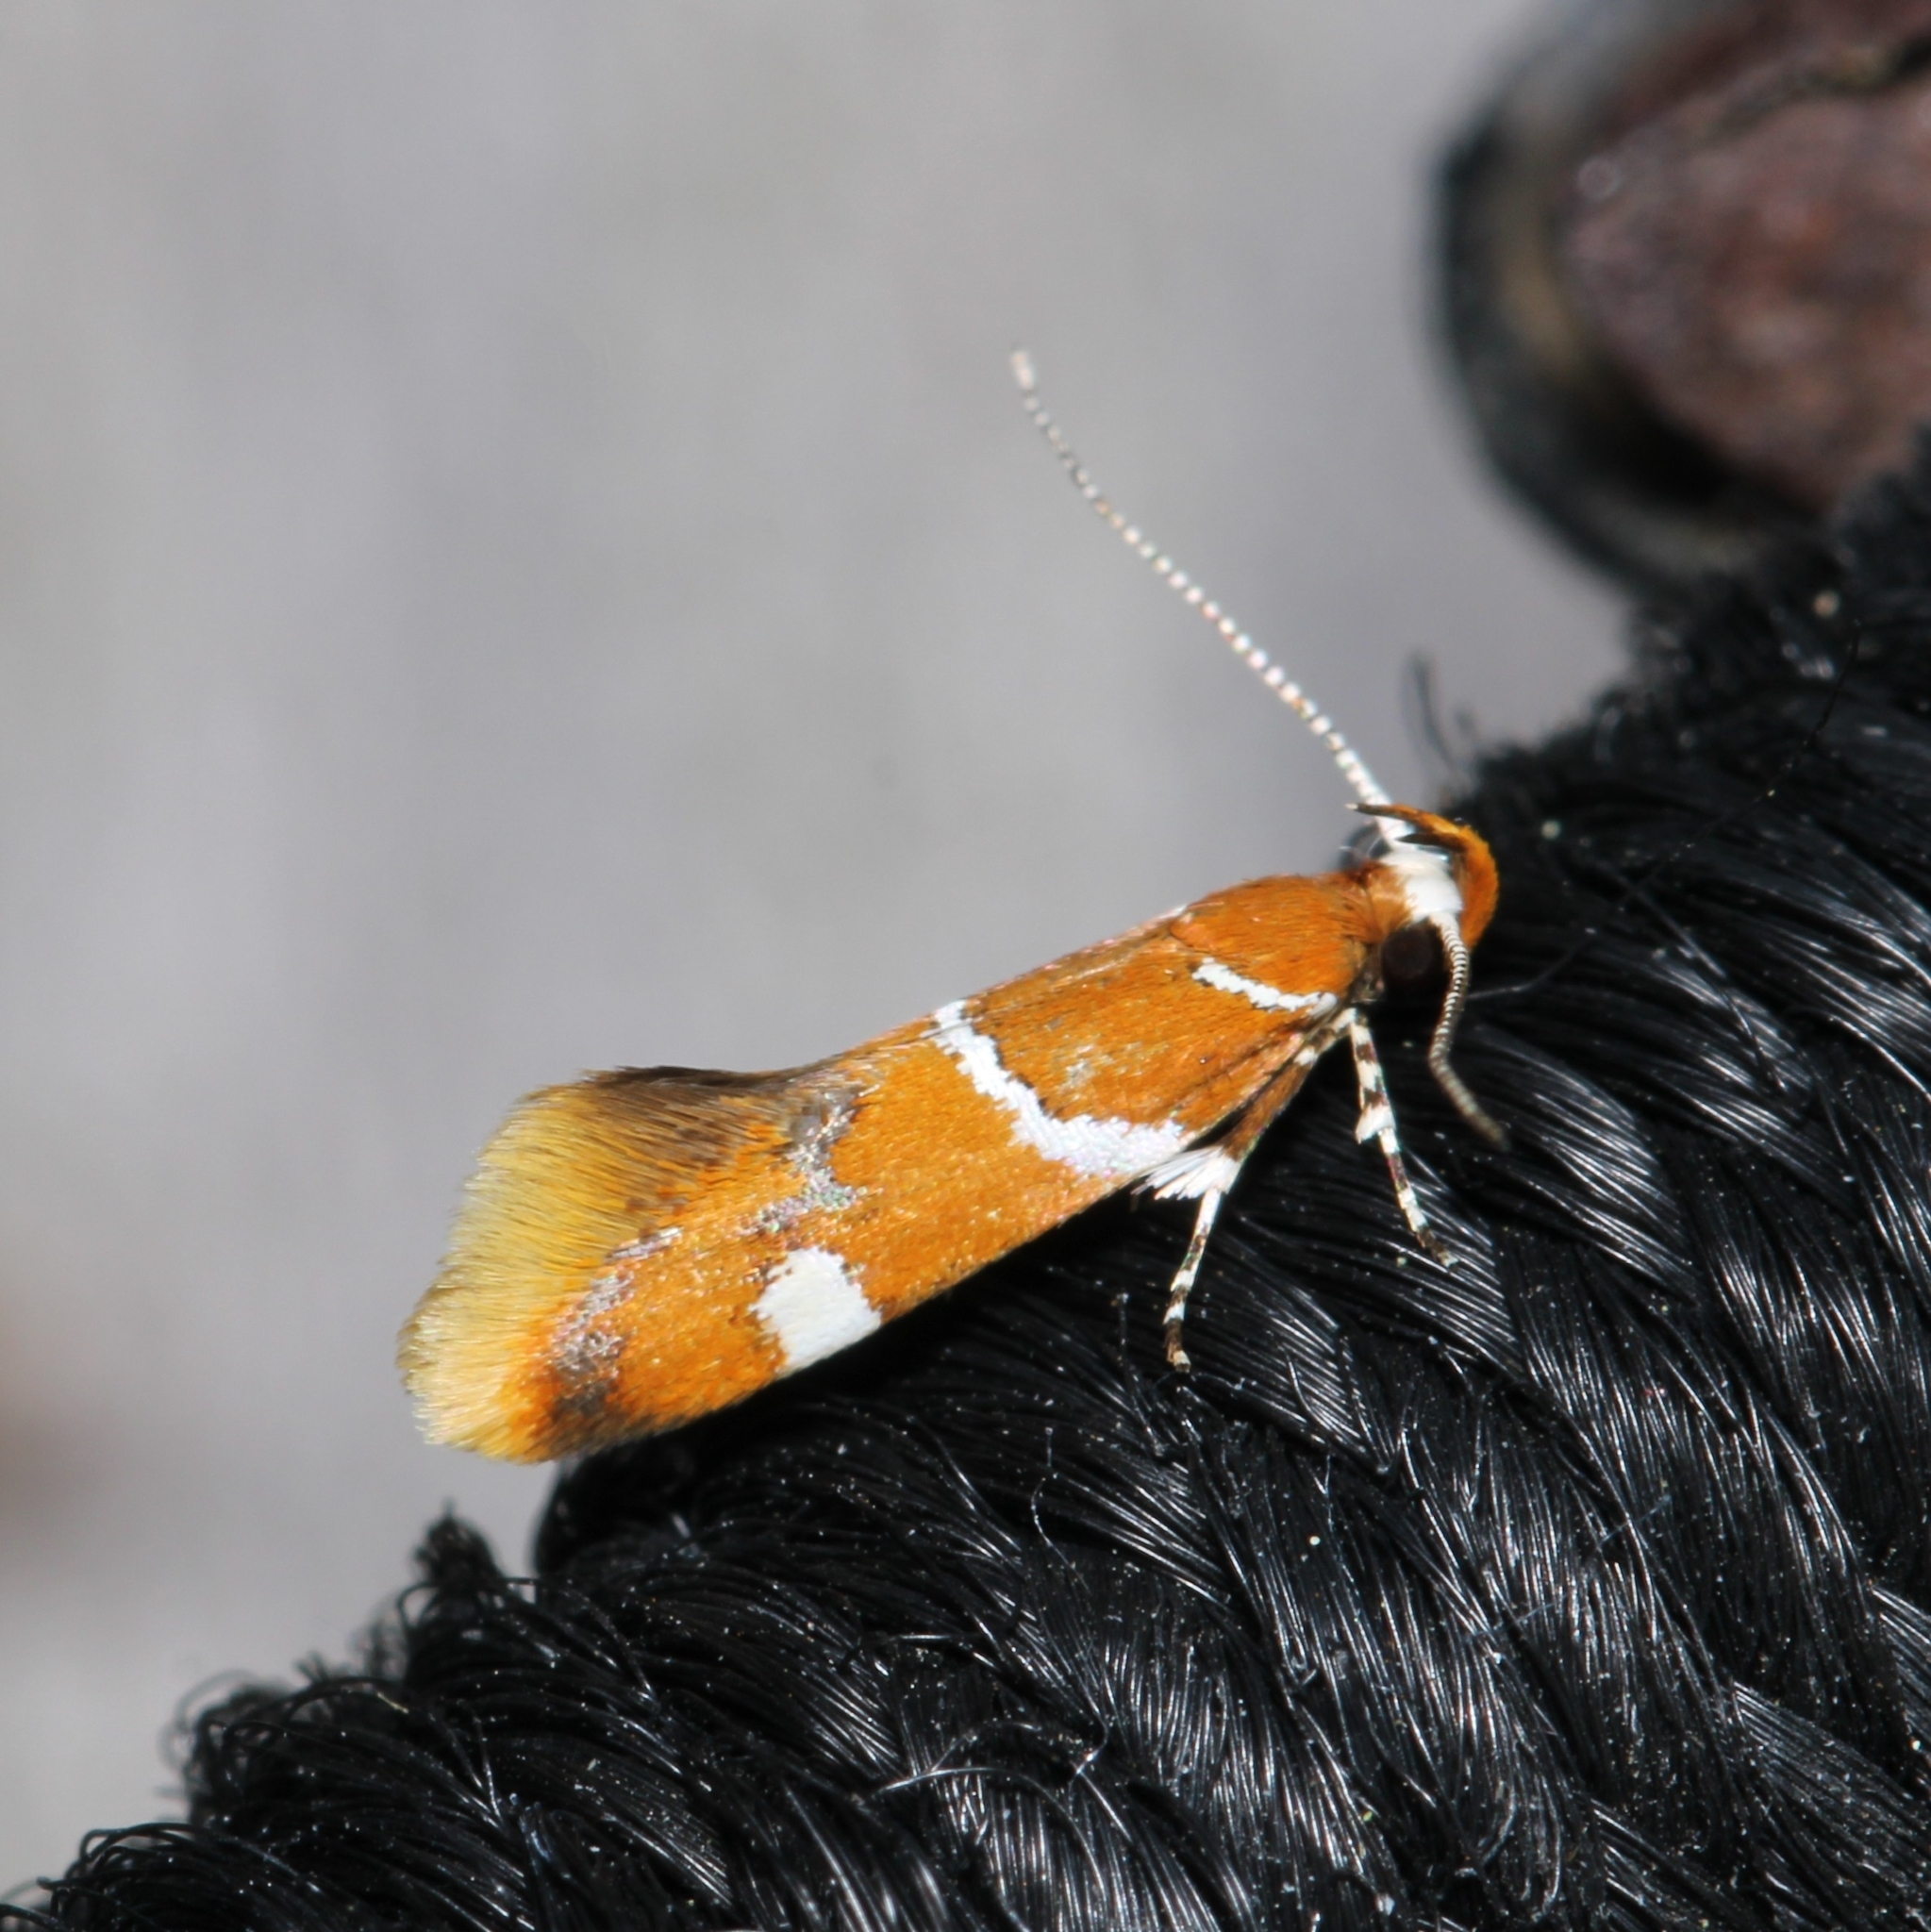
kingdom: Animalia
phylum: Arthropoda
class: Insecta
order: Lepidoptera
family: Oecophoridae
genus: Promalactis
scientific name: Promalactis suzukiella
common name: Moth
